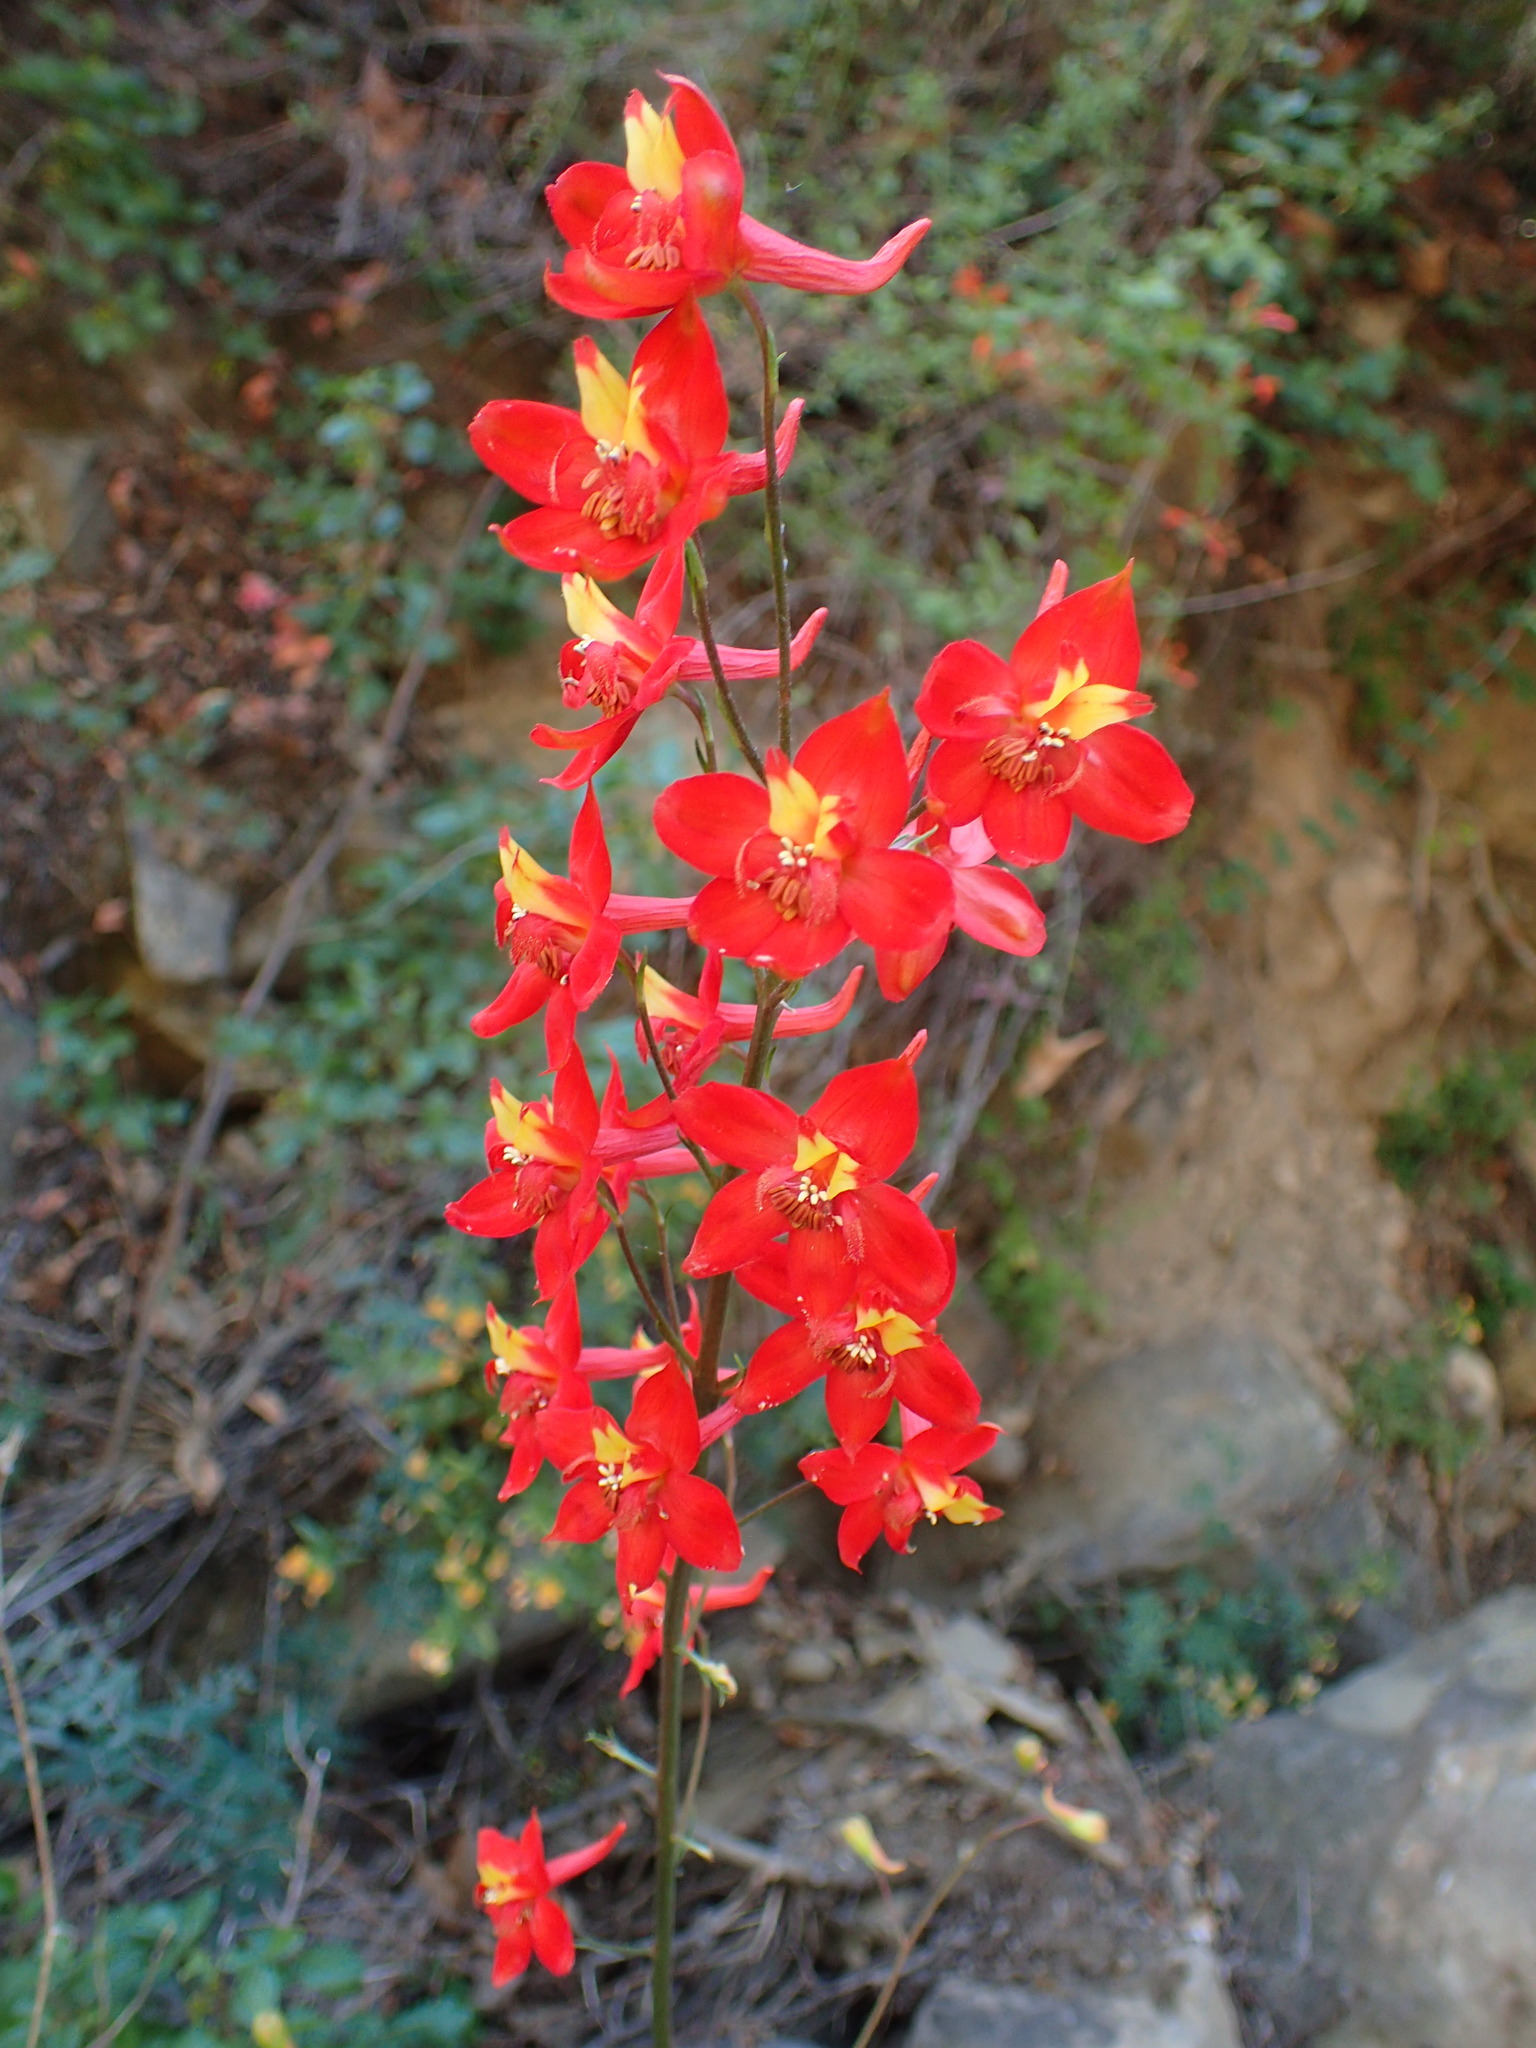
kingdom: Plantae
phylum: Tracheophyta
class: Magnoliopsida
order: Ranunculales
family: Ranunculaceae
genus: Delphinium
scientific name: Delphinium cardinale
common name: Scarlet larkspur
